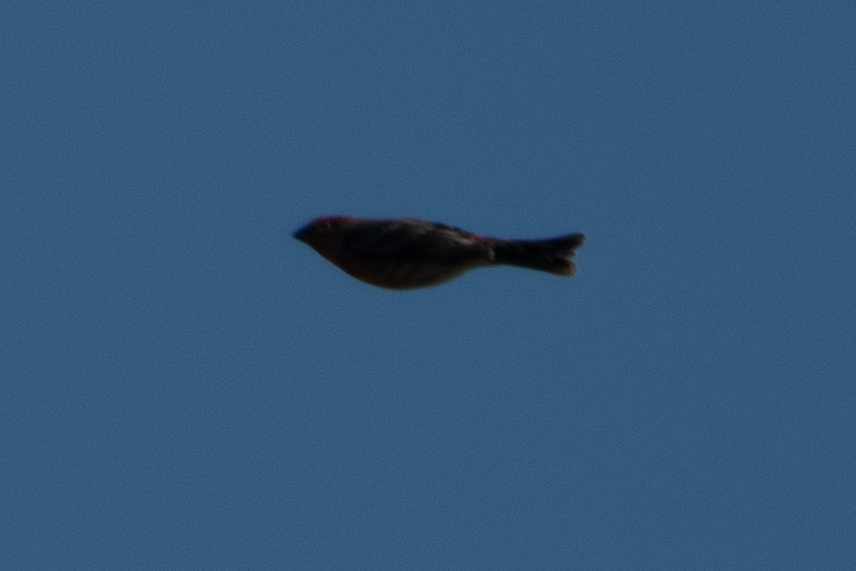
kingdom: Animalia
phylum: Chordata
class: Aves
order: Passeriformes
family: Fringillidae
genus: Haemorhous
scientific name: Haemorhous mexicanus
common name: House finch
